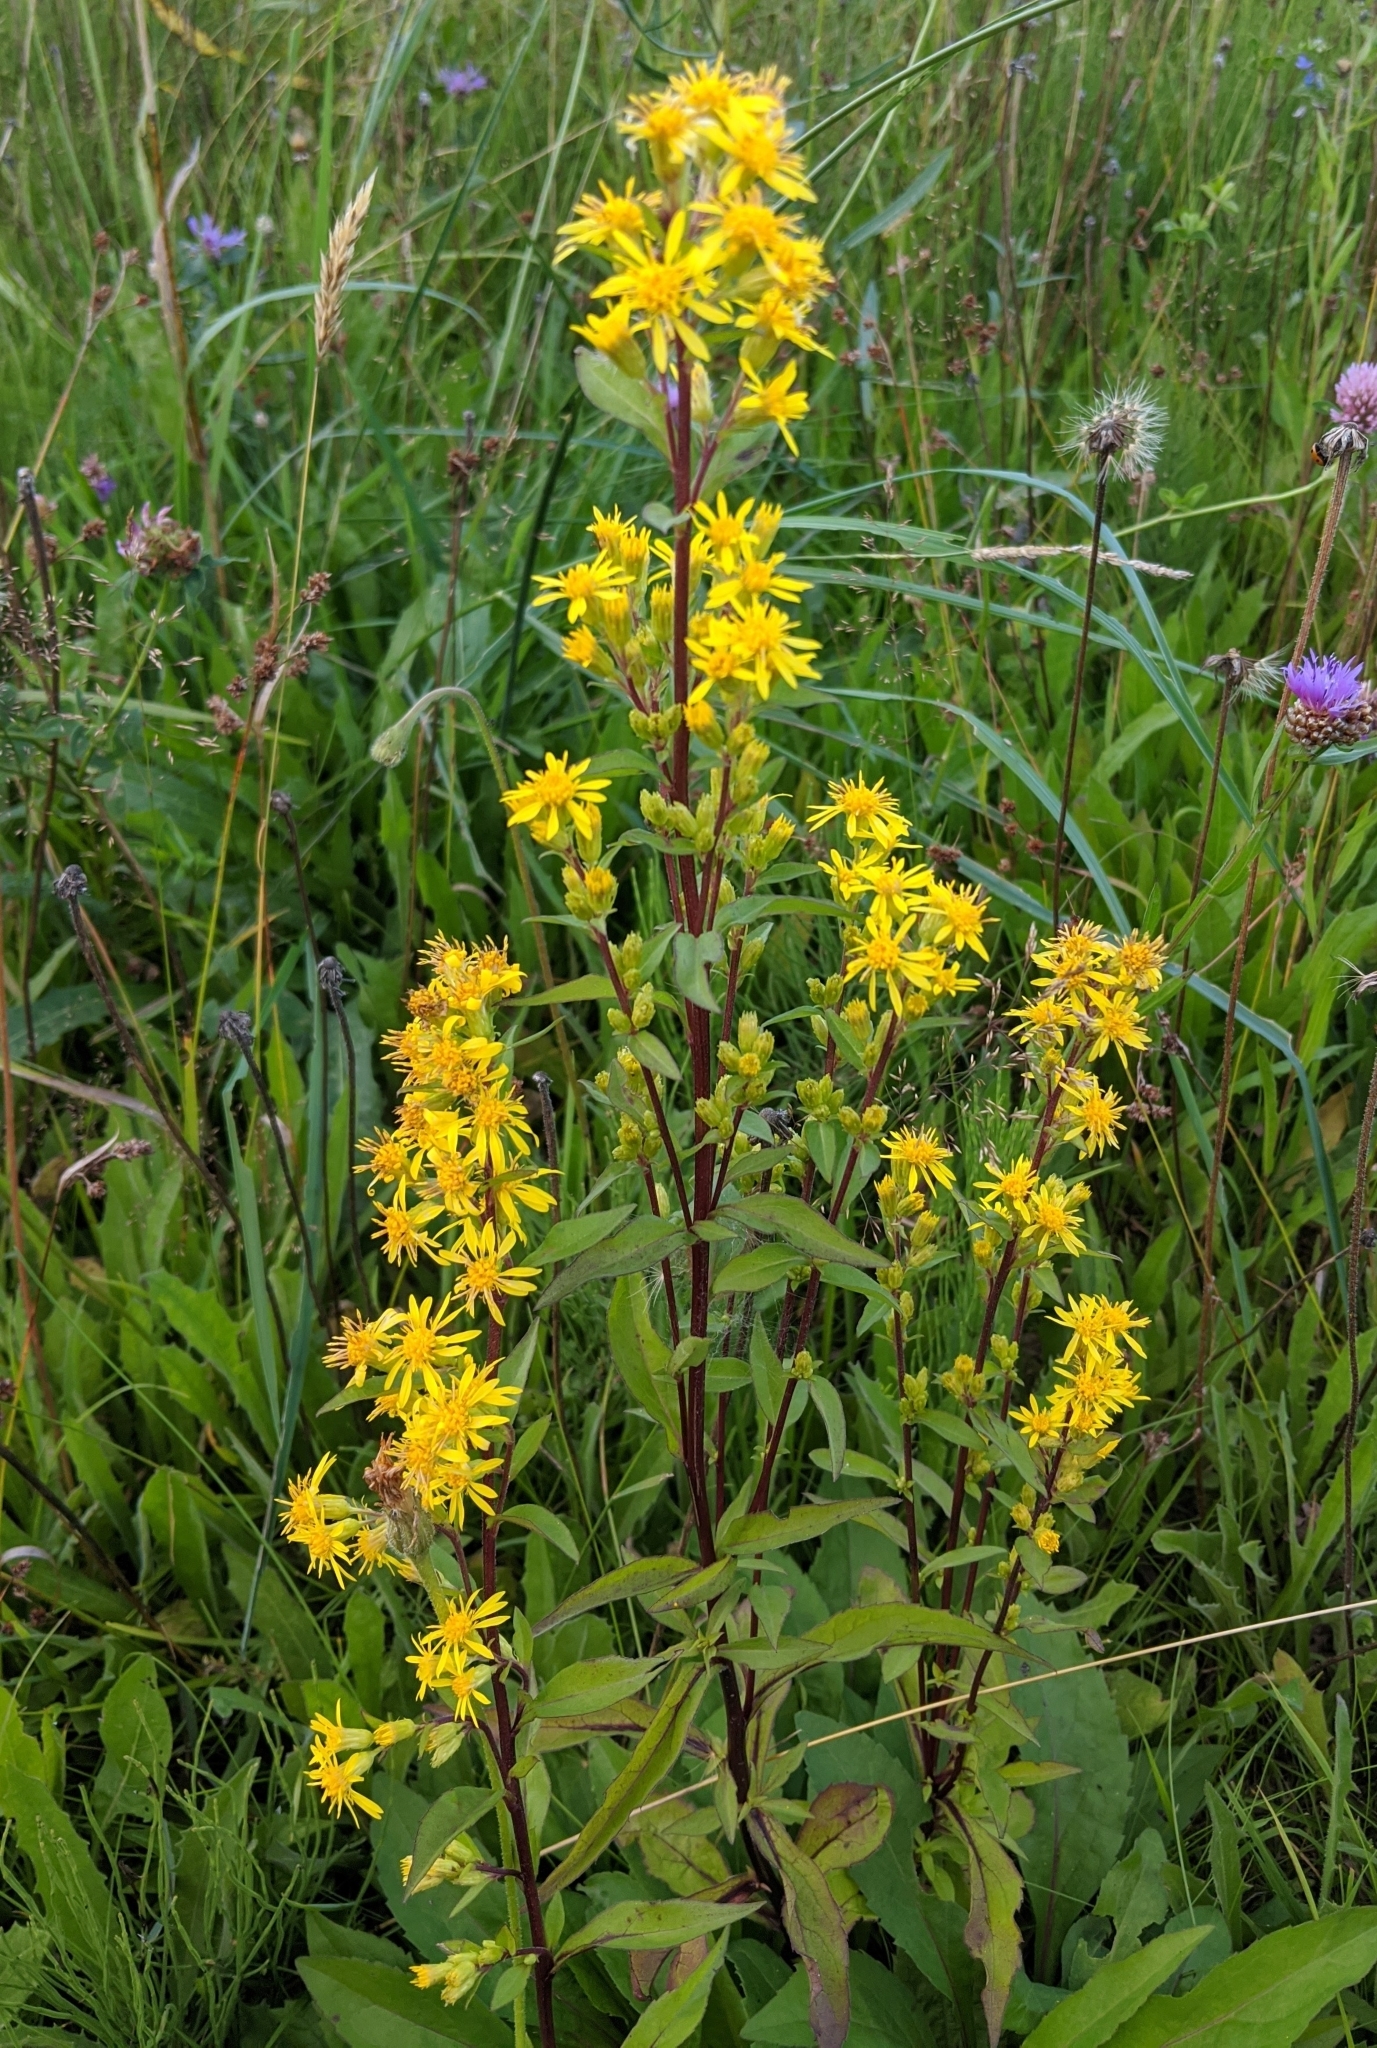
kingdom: Plantae
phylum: Tracheophyta
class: Magnoliopsida
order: Asterales
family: Asteraceae
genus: Solidago
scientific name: Solidago virgaurea
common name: Goldenrod
